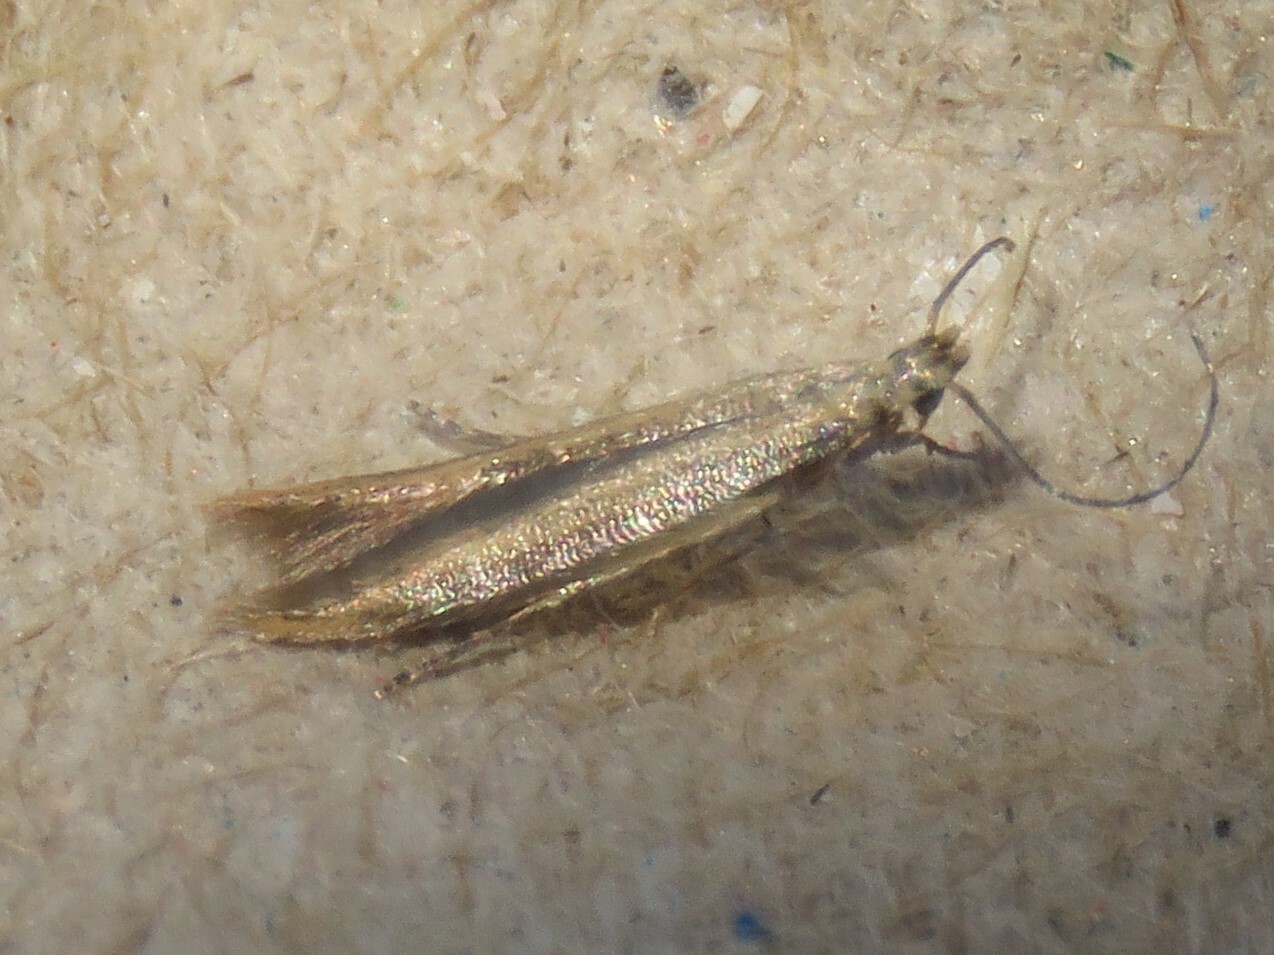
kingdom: Animalia
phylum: Arthropoda
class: Insecta
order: Lepidoptera
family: Gelechiidae
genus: Stereomita
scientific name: Stereomita andropogonis
